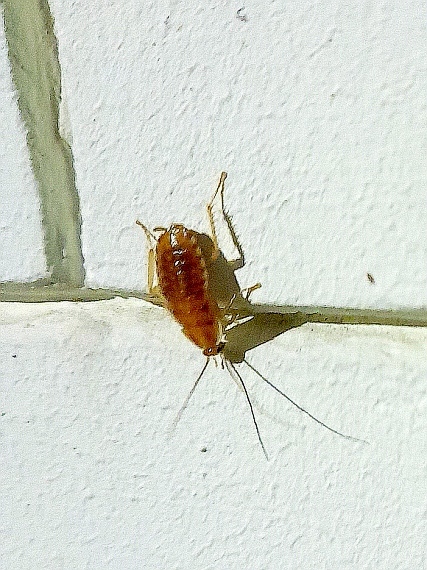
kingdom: Animalia
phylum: Arthropoda
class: Insecta
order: Blattodea
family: Ectobiidae
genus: Blattella
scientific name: Blattella germanica
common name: German cockroach
